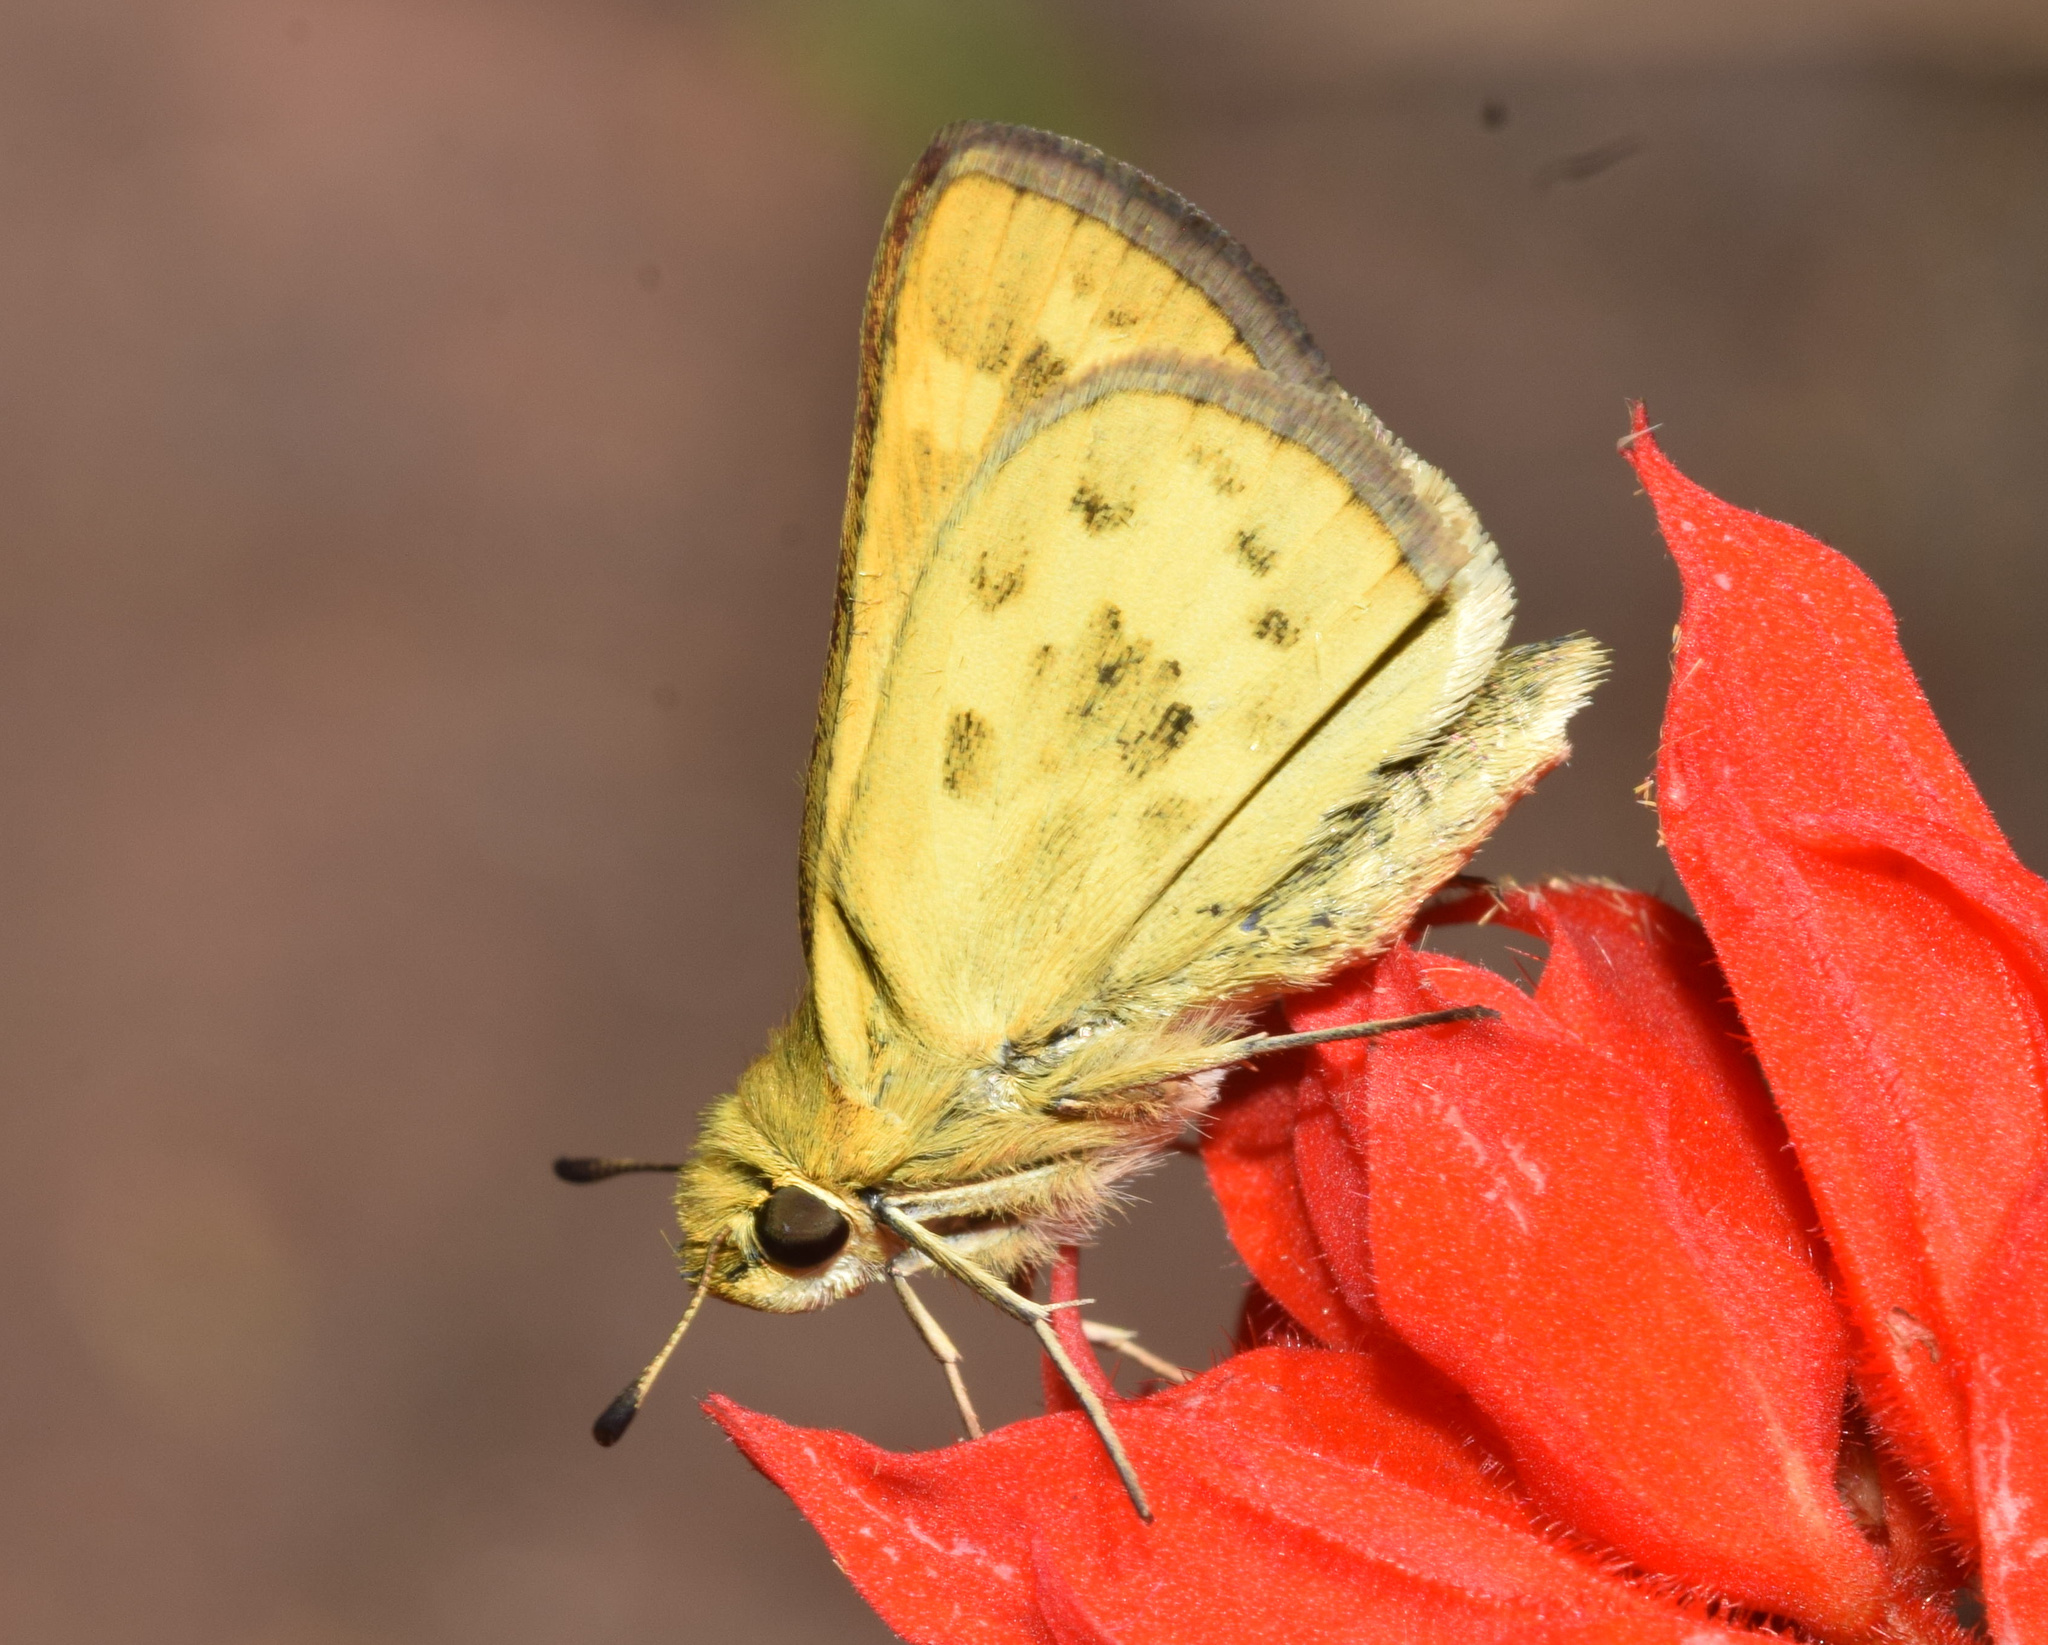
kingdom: Animalia
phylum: Arthropoda
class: Insecta
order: Lepidoptera
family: Hesperiidae
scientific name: Hesperiidae
